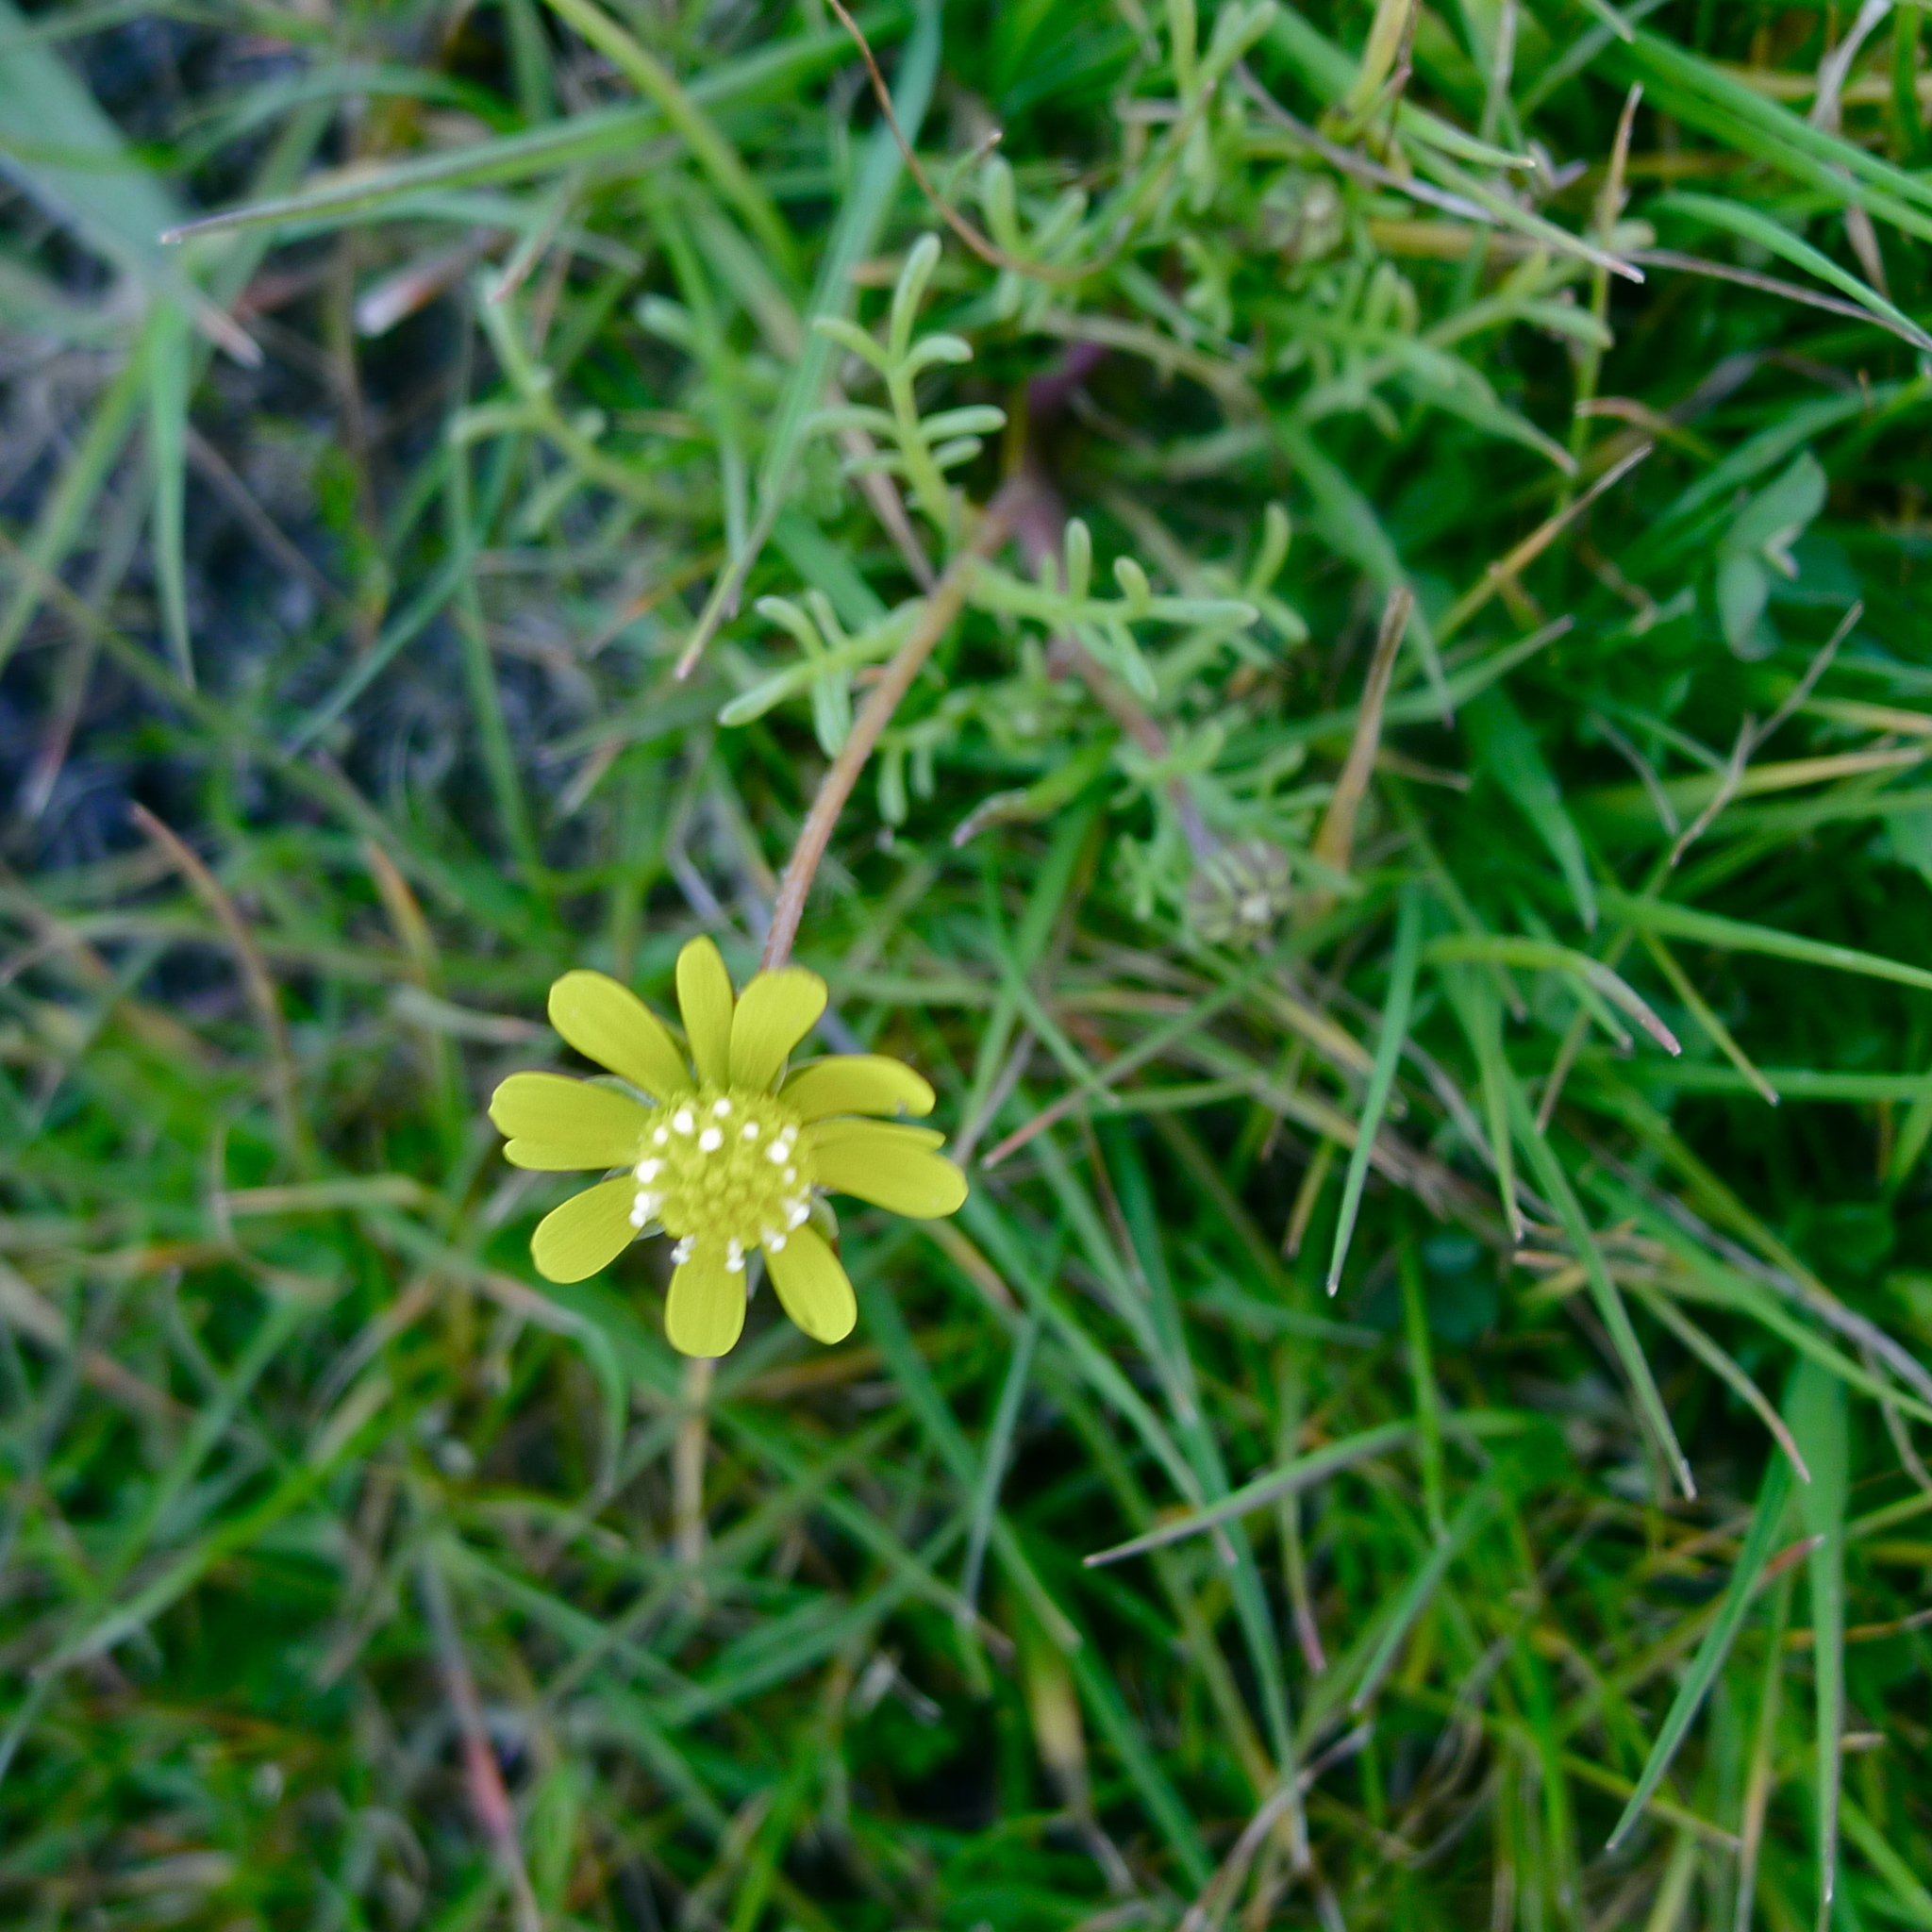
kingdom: Plantae
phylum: Tracheophyta
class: Magnoliopsida
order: Asterales
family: Asteraceae
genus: Blennosperma
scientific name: Blennosperma nanum
